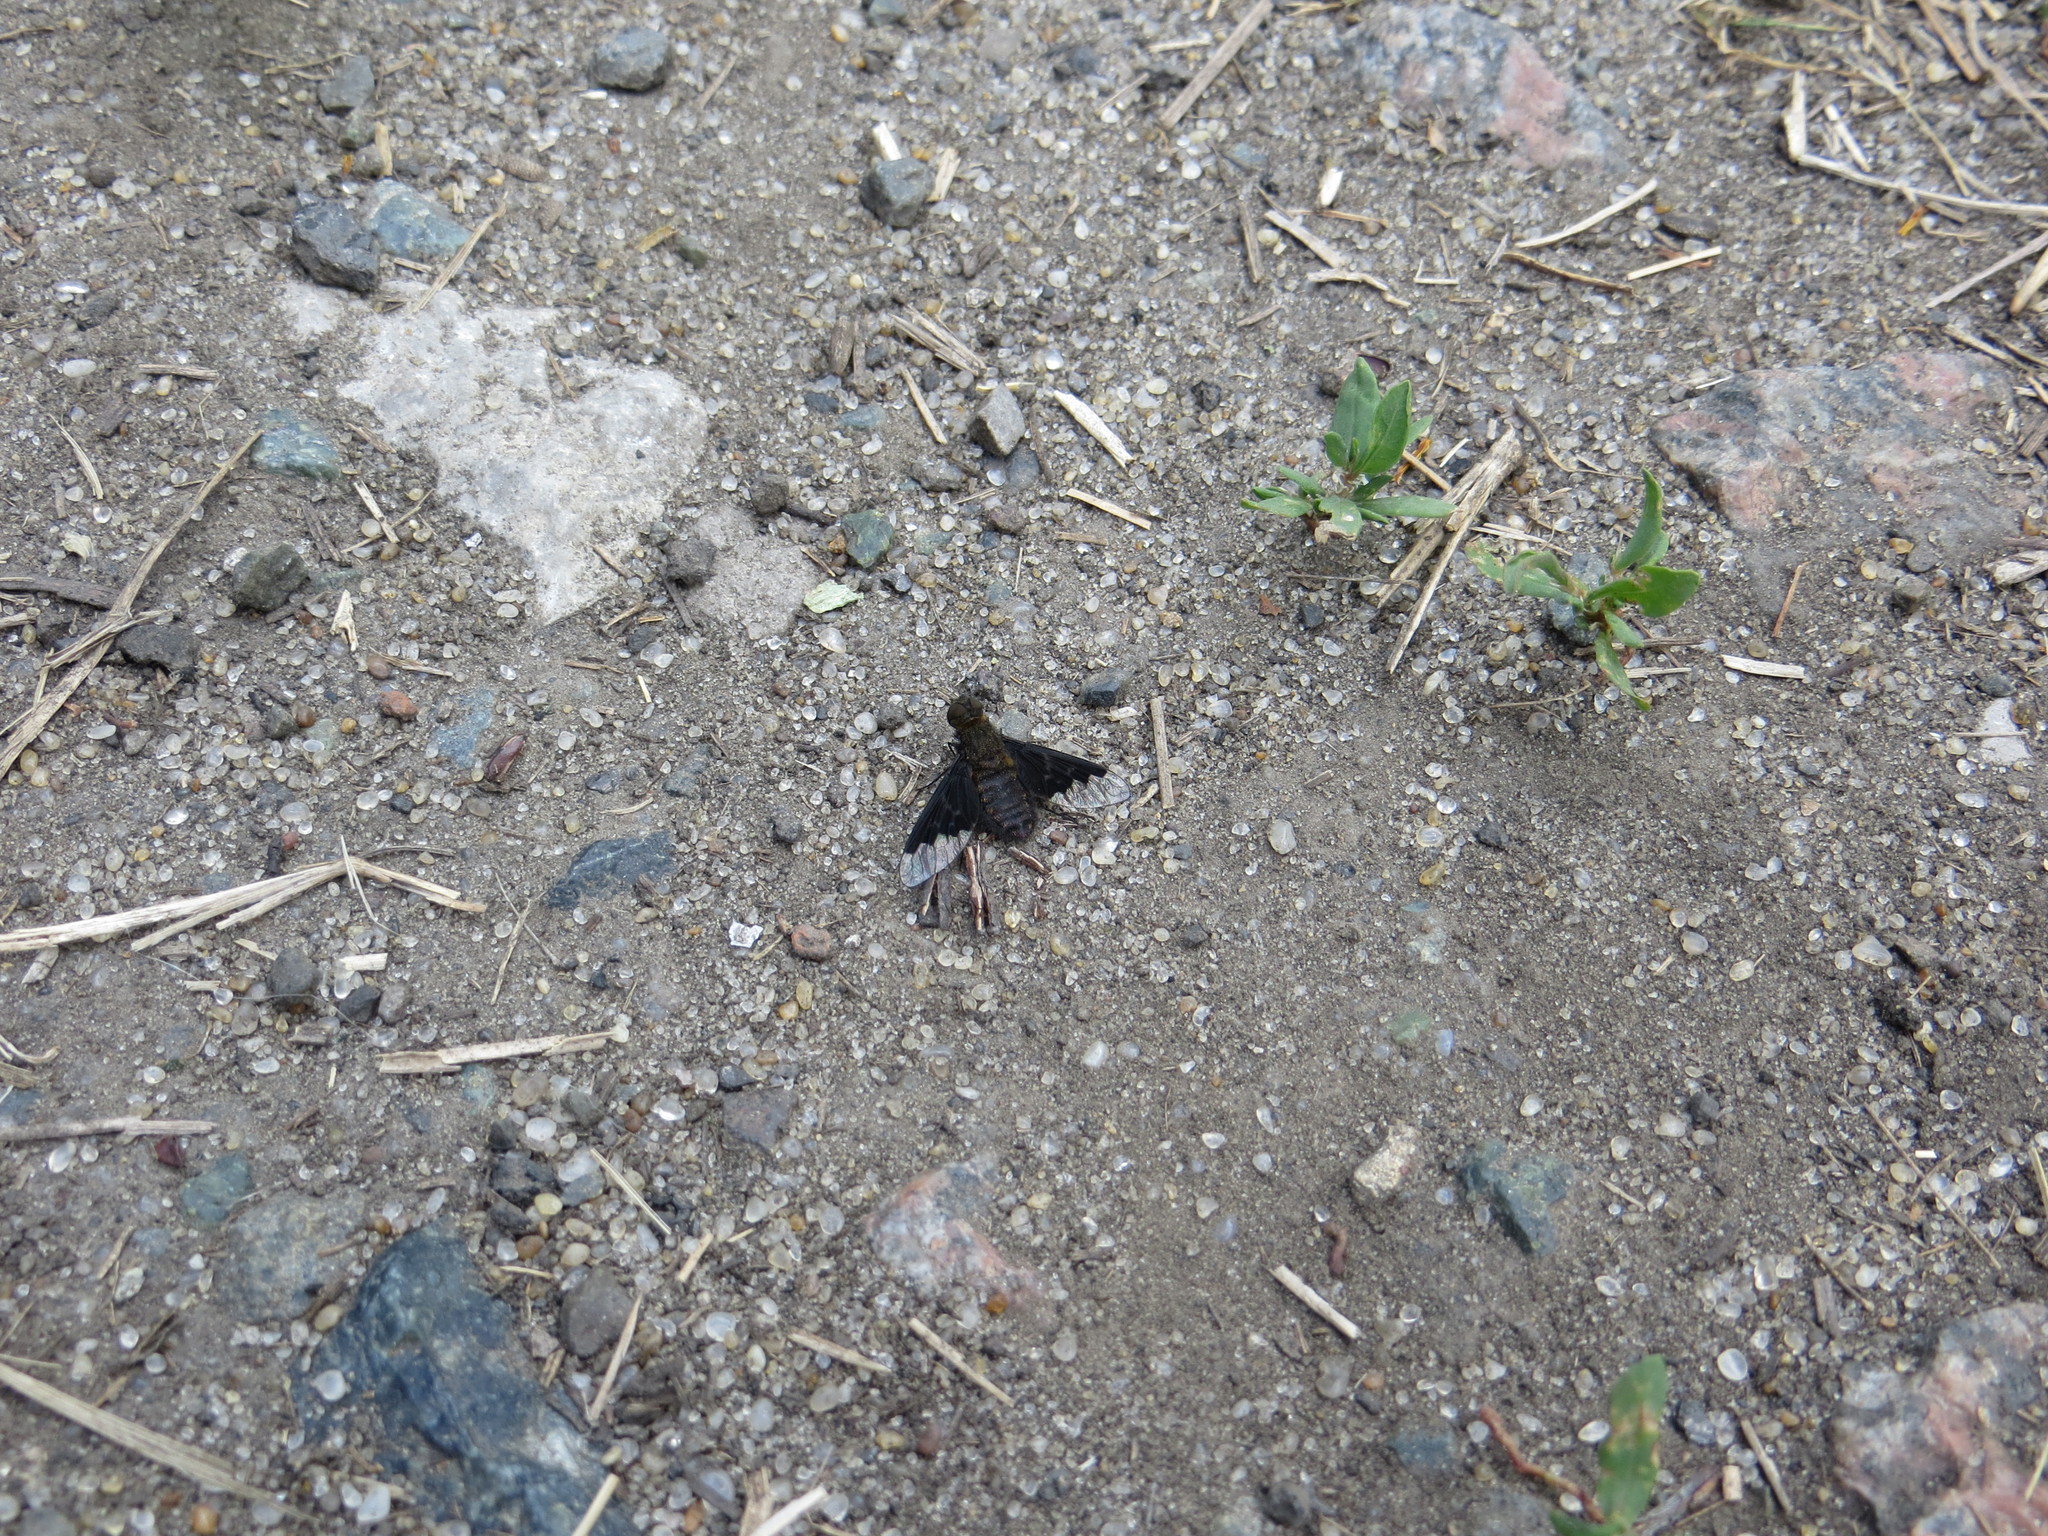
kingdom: Animalia
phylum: Arthropoda
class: Insecta
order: Diptera
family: Bombyliidae
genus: Hemipenthes
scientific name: Hemipenthes morio
